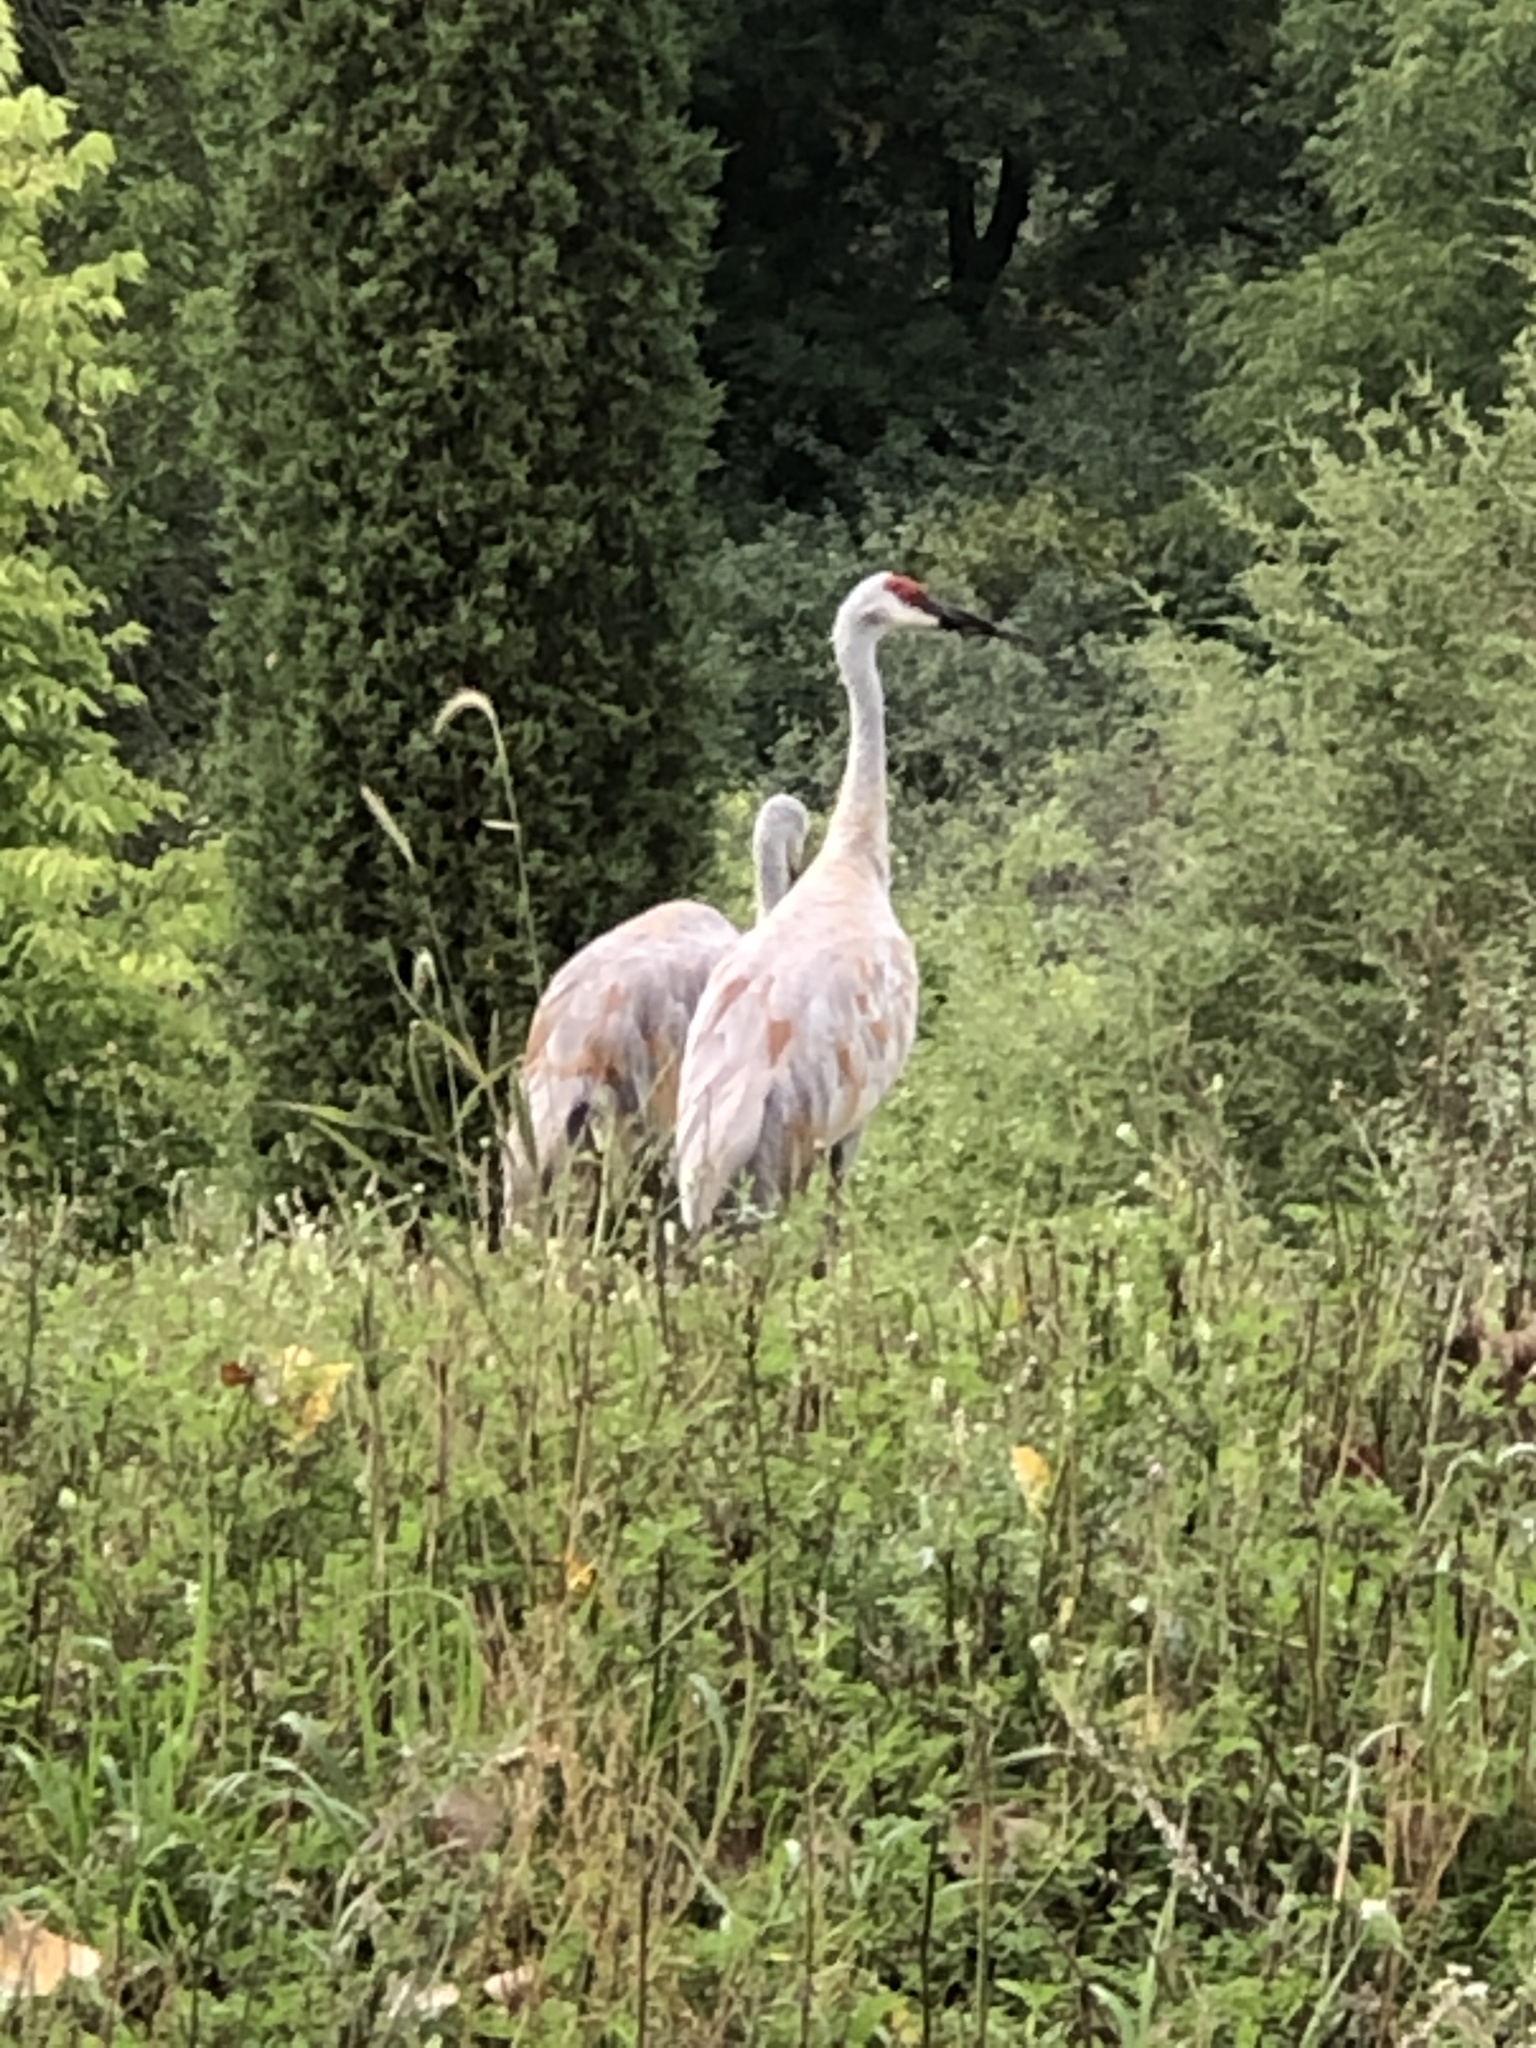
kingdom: Animalia
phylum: Chordata
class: Aves
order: Gruiformes
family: Gruidae
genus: Grus
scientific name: Grus canadensis
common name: Sandhill crane
